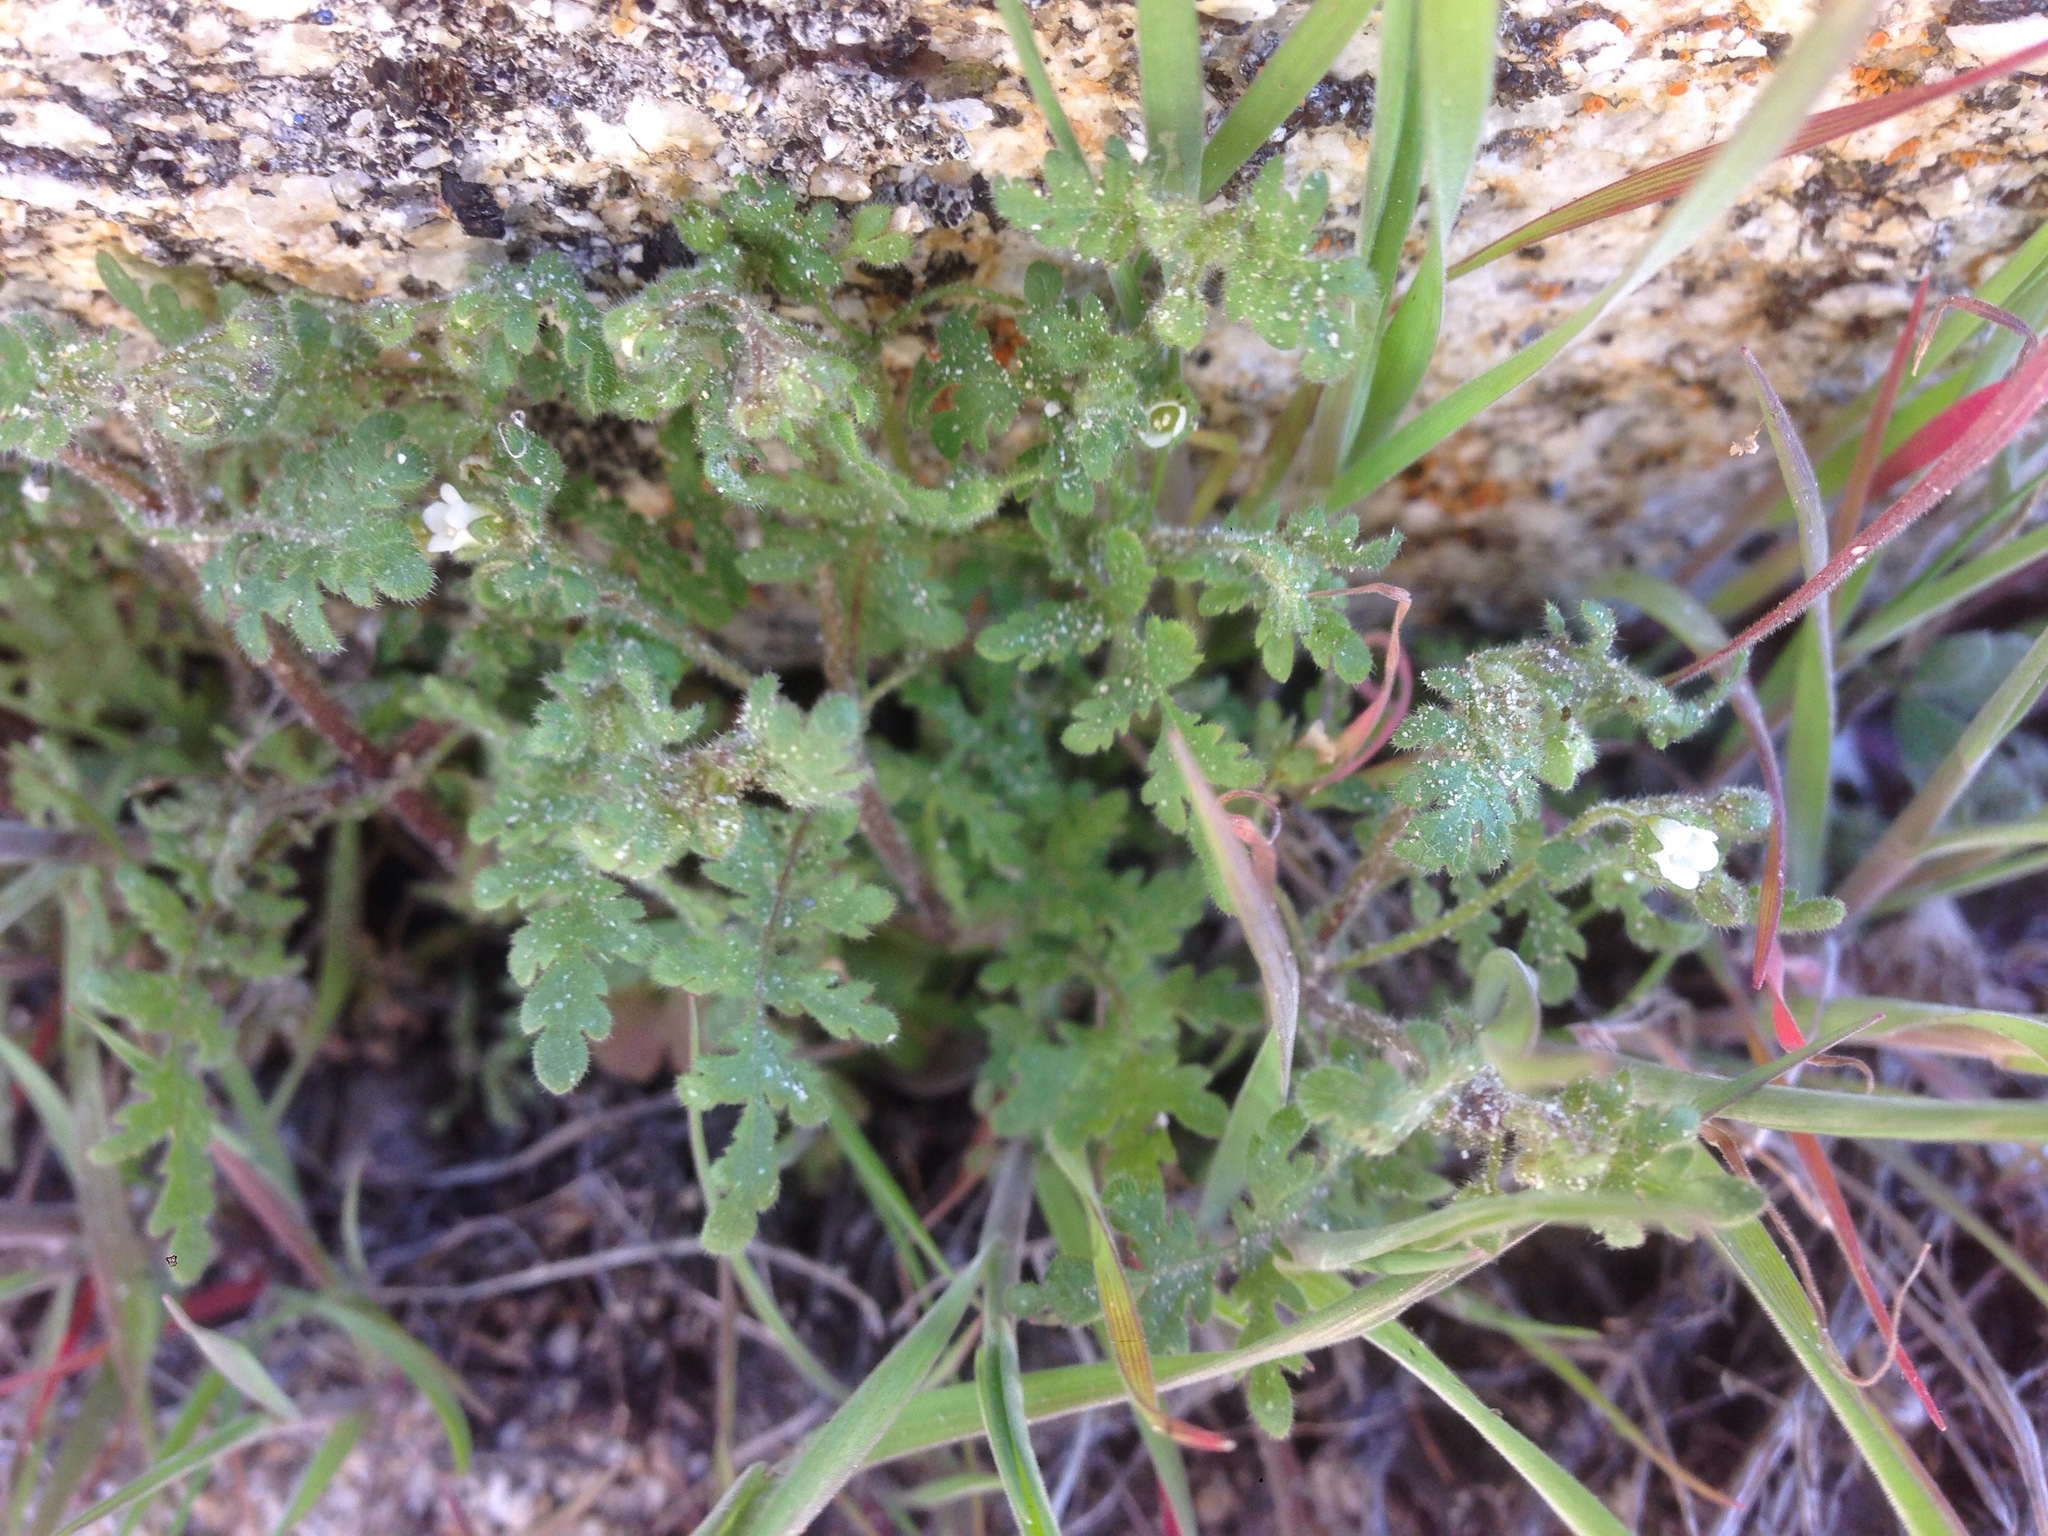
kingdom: Plantae
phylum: Tracheophyta
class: Magnoliopsida
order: Boraginales
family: Hydrophyllaceae
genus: Eucrypta
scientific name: Eucrypta chrysanthemifolia
